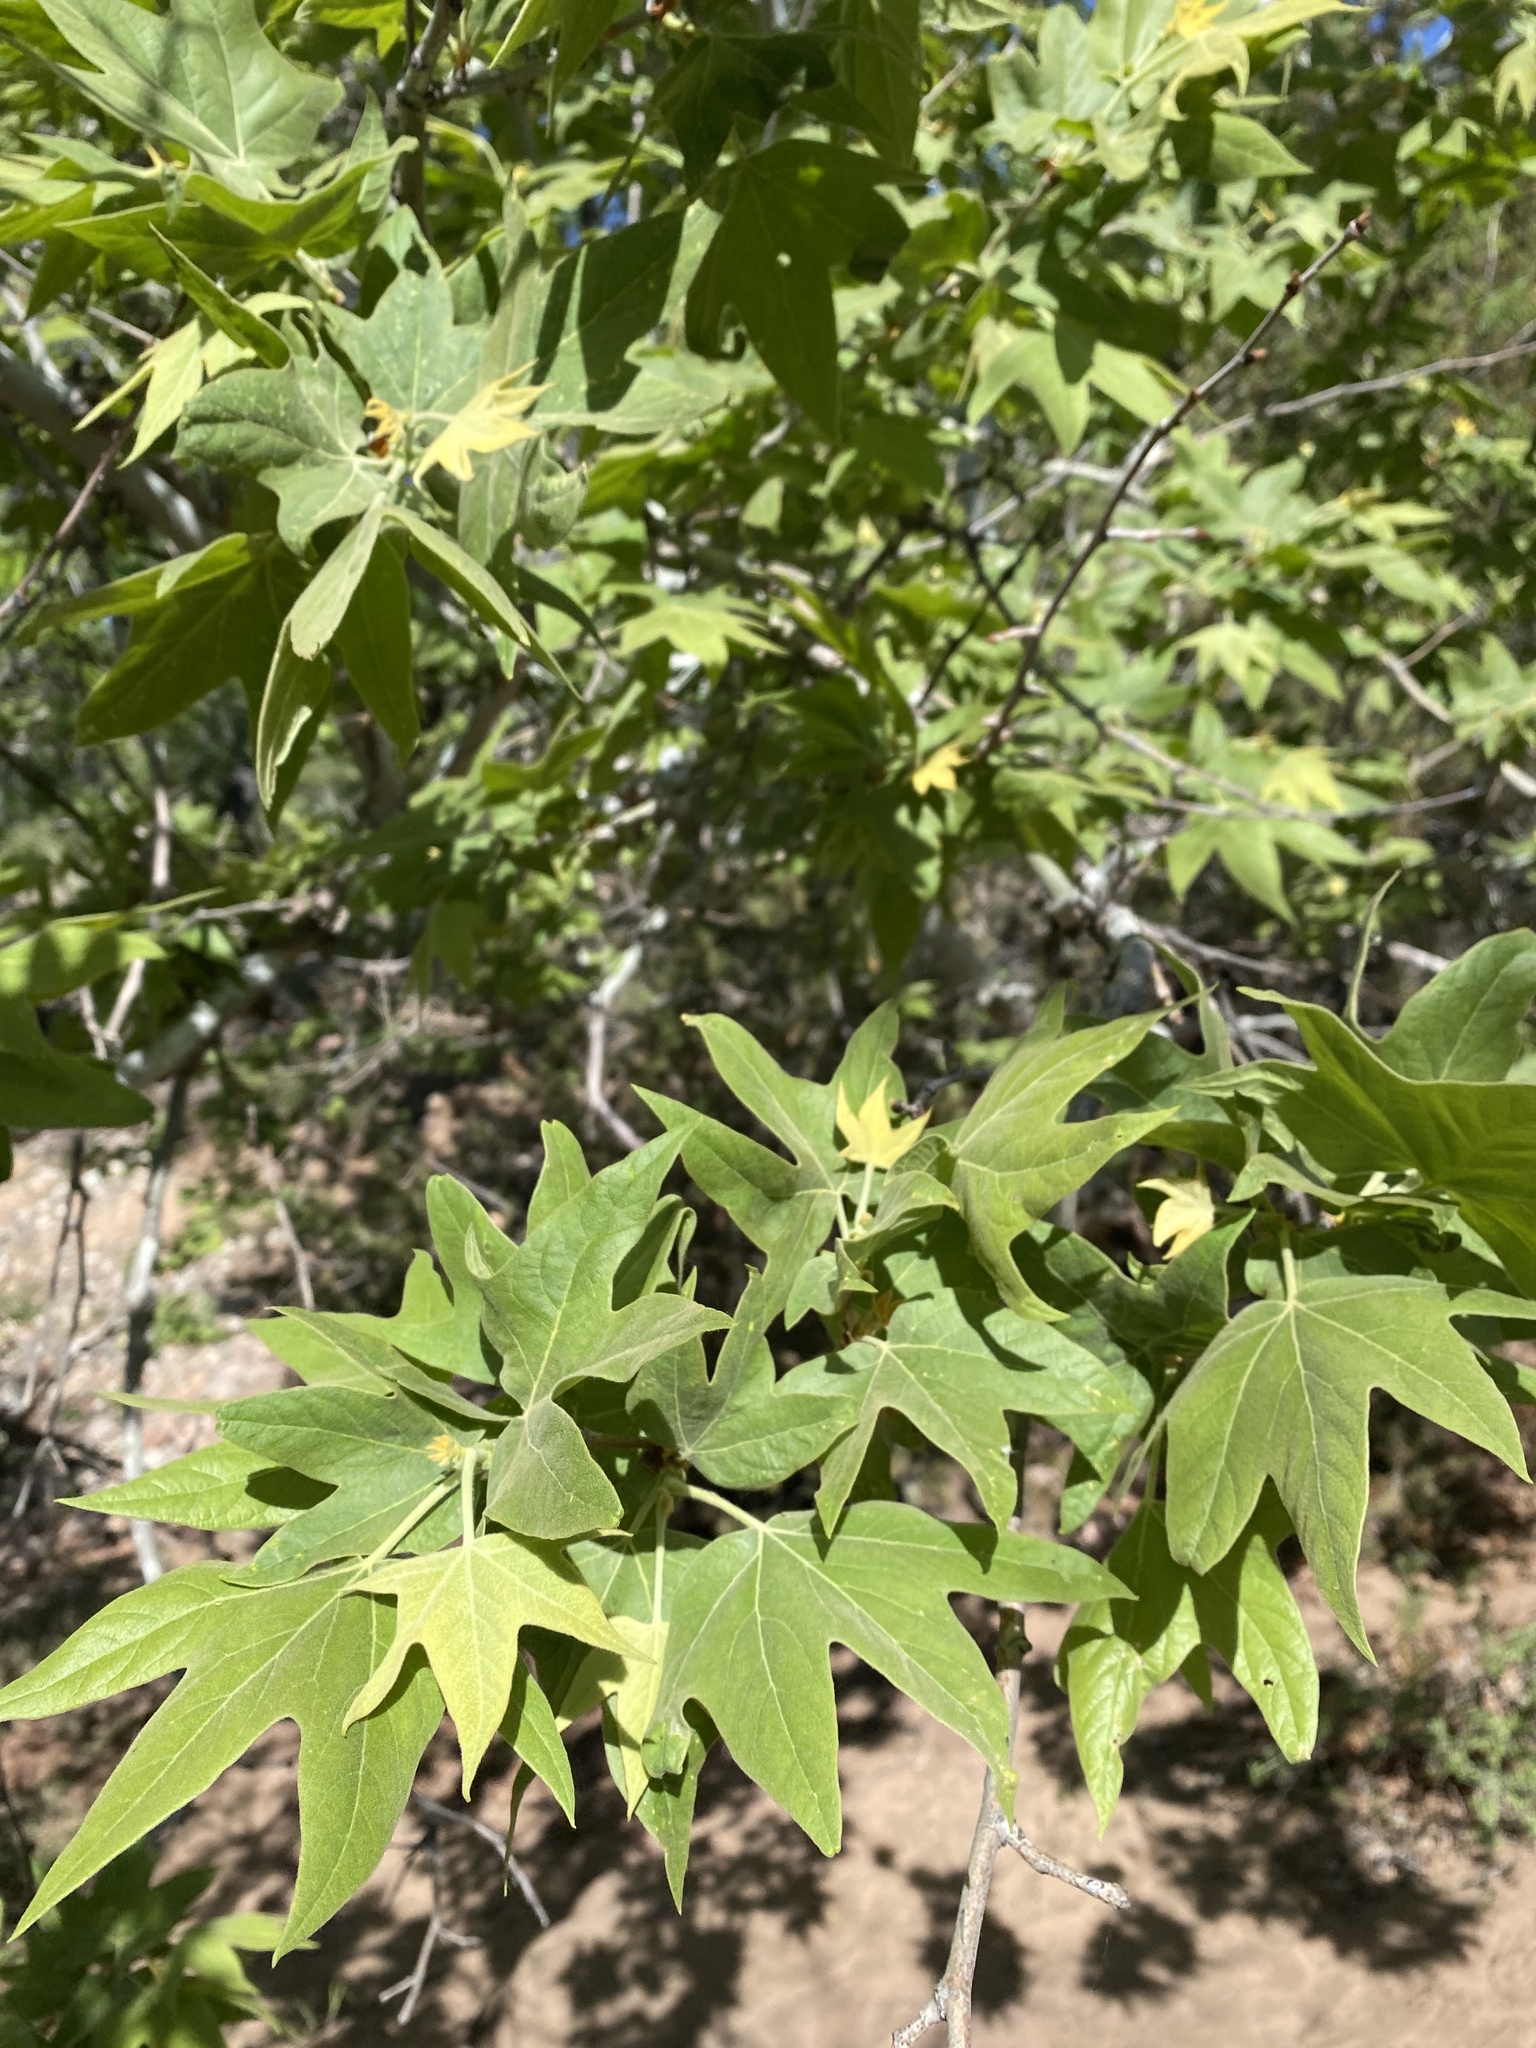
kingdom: Plantae
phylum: Tracheophyta
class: Magnoliopsida
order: Proteales
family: Platanaceae
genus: Platanus
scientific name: Platanus wrightii
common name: Arizona sycamore
